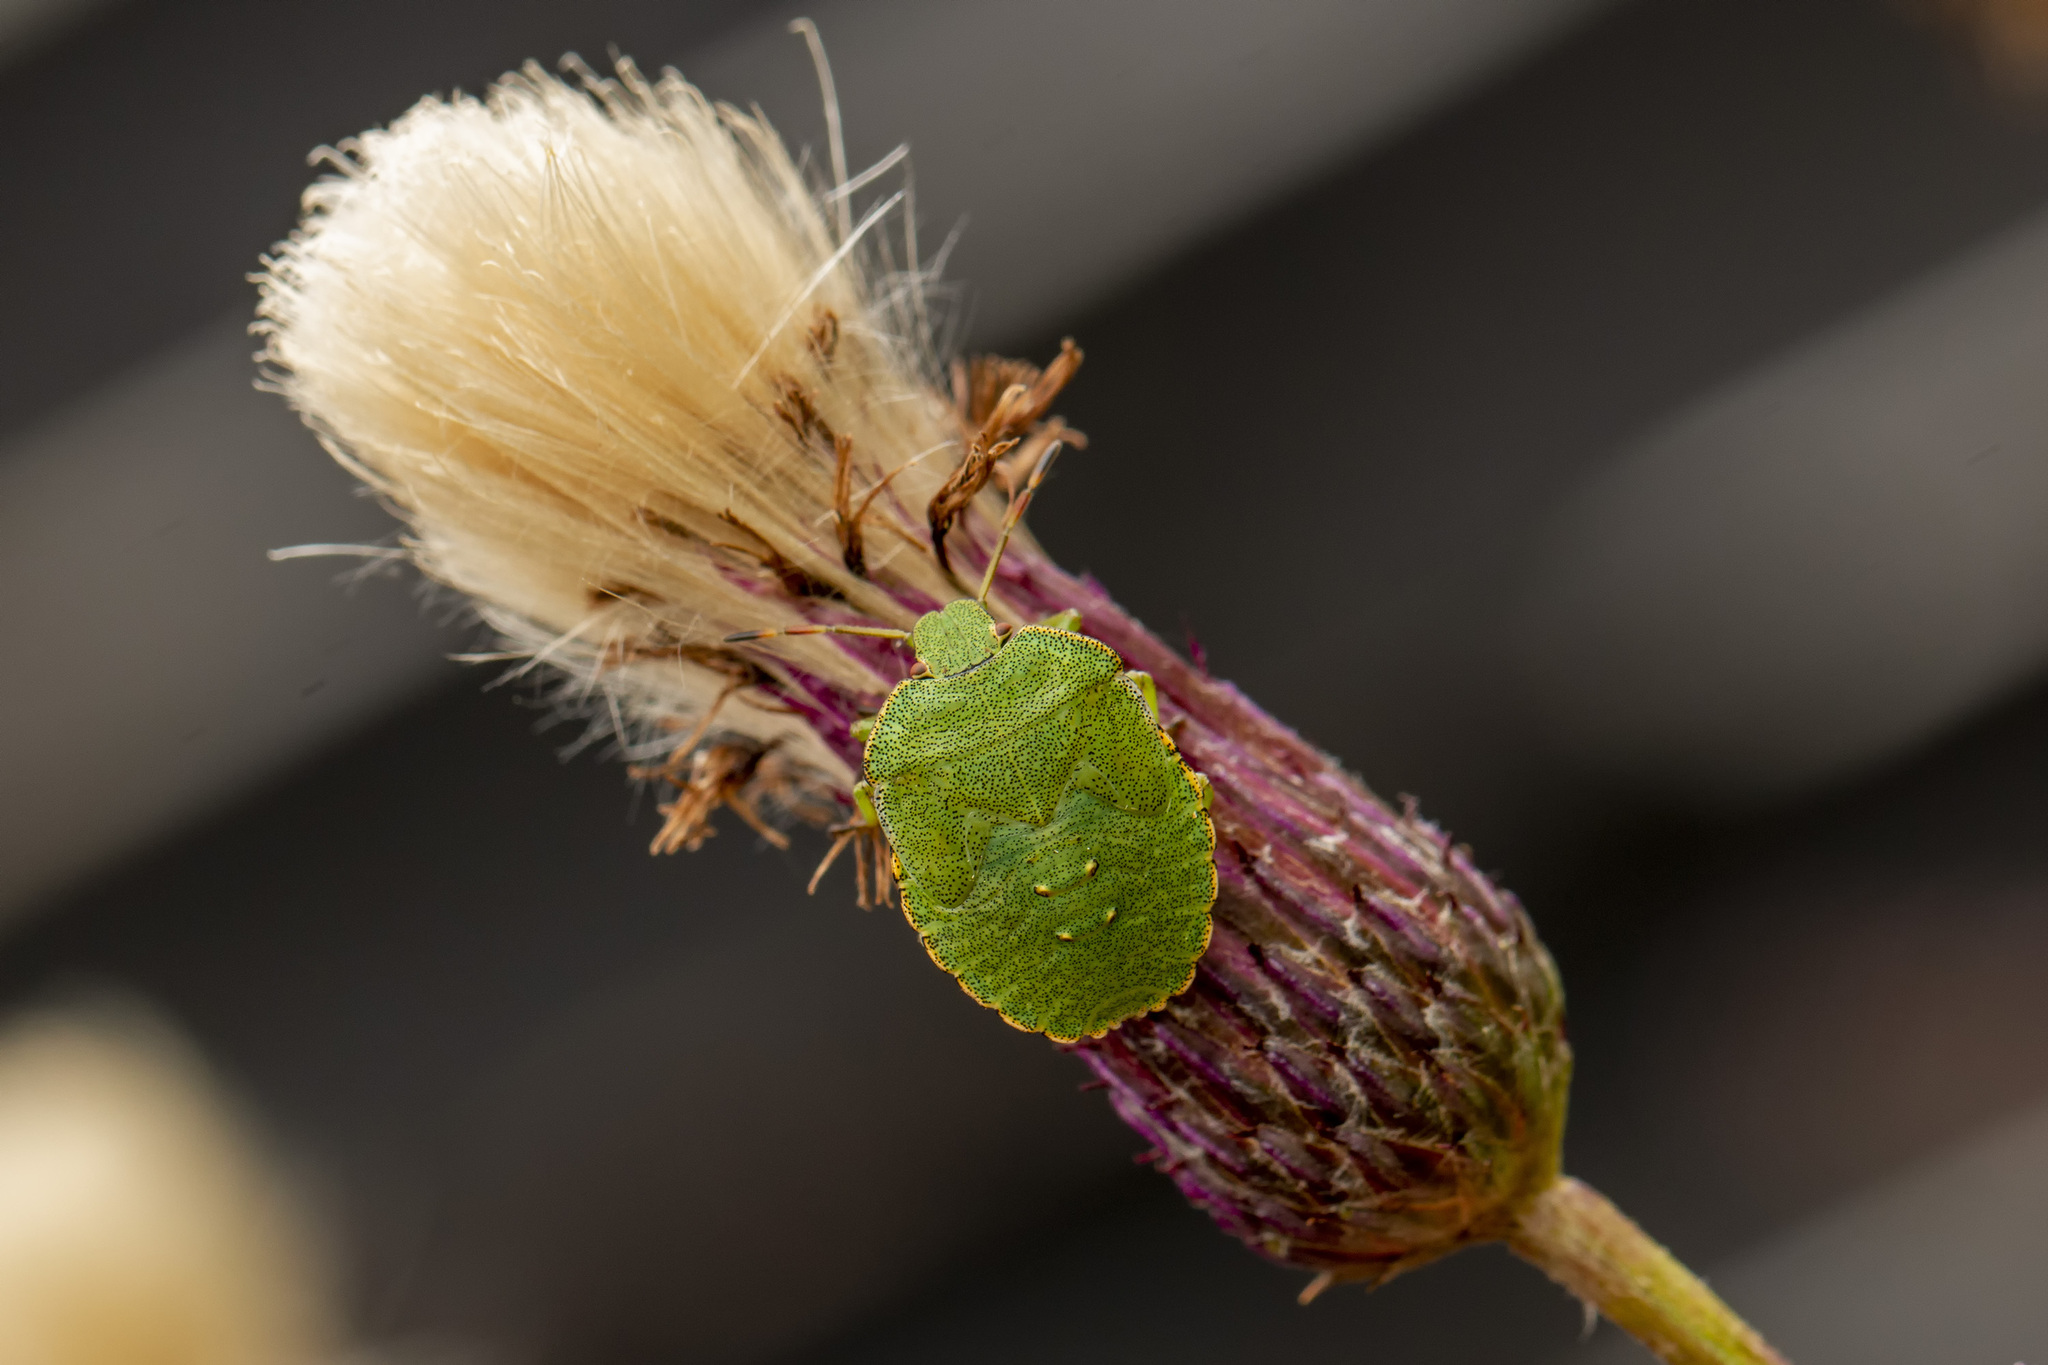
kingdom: Animalia
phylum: Arthropoda
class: Insecta
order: Hemiptera
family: Pentatomidae
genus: Palomena
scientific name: Palomena prasina
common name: Green shieldbug
